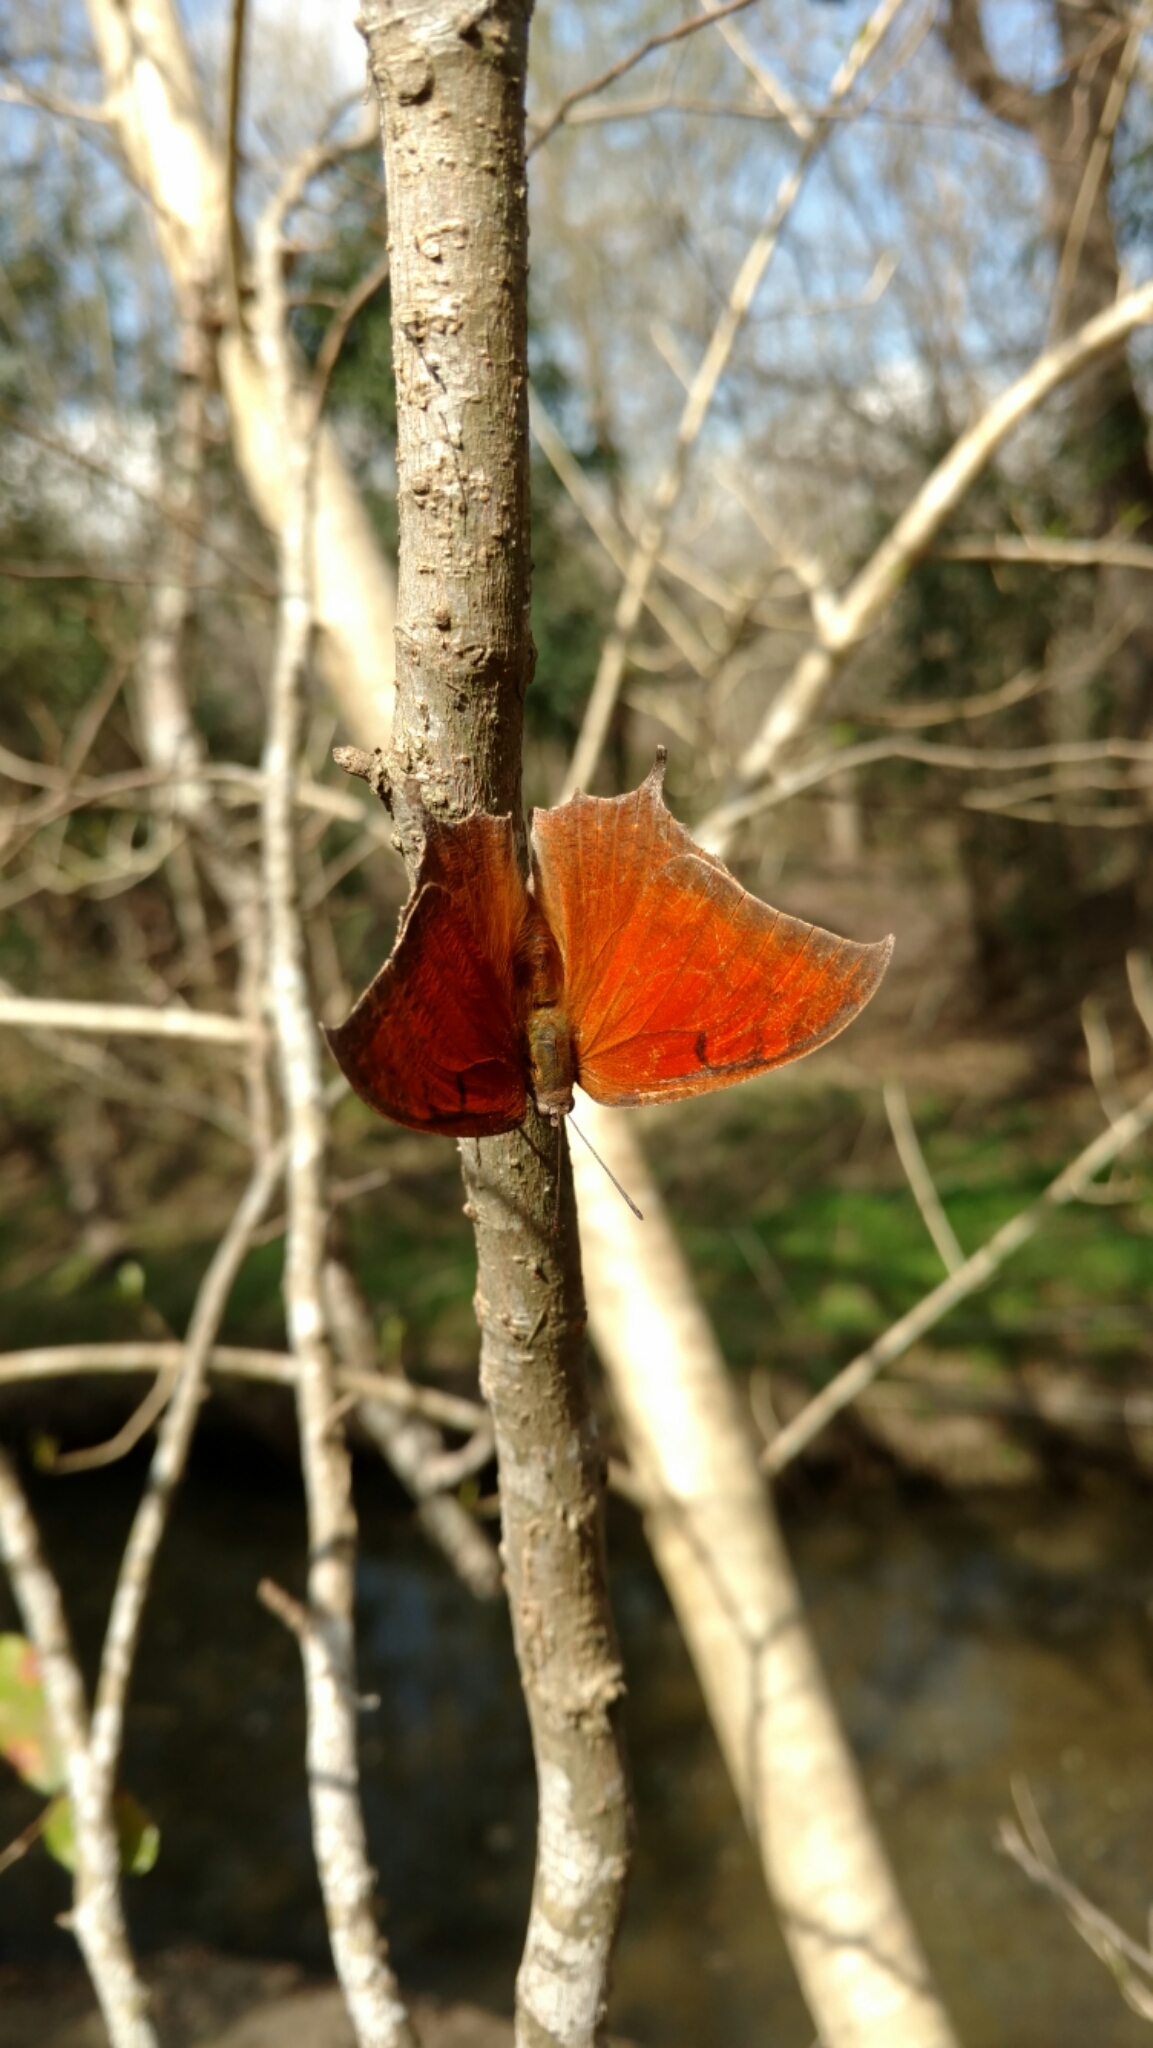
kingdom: Animalia
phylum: Arthropoda
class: Insecta
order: Lepidoptera
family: Nymphalidae
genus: Anaea
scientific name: Anaea andria
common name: Goatweed leafwing
